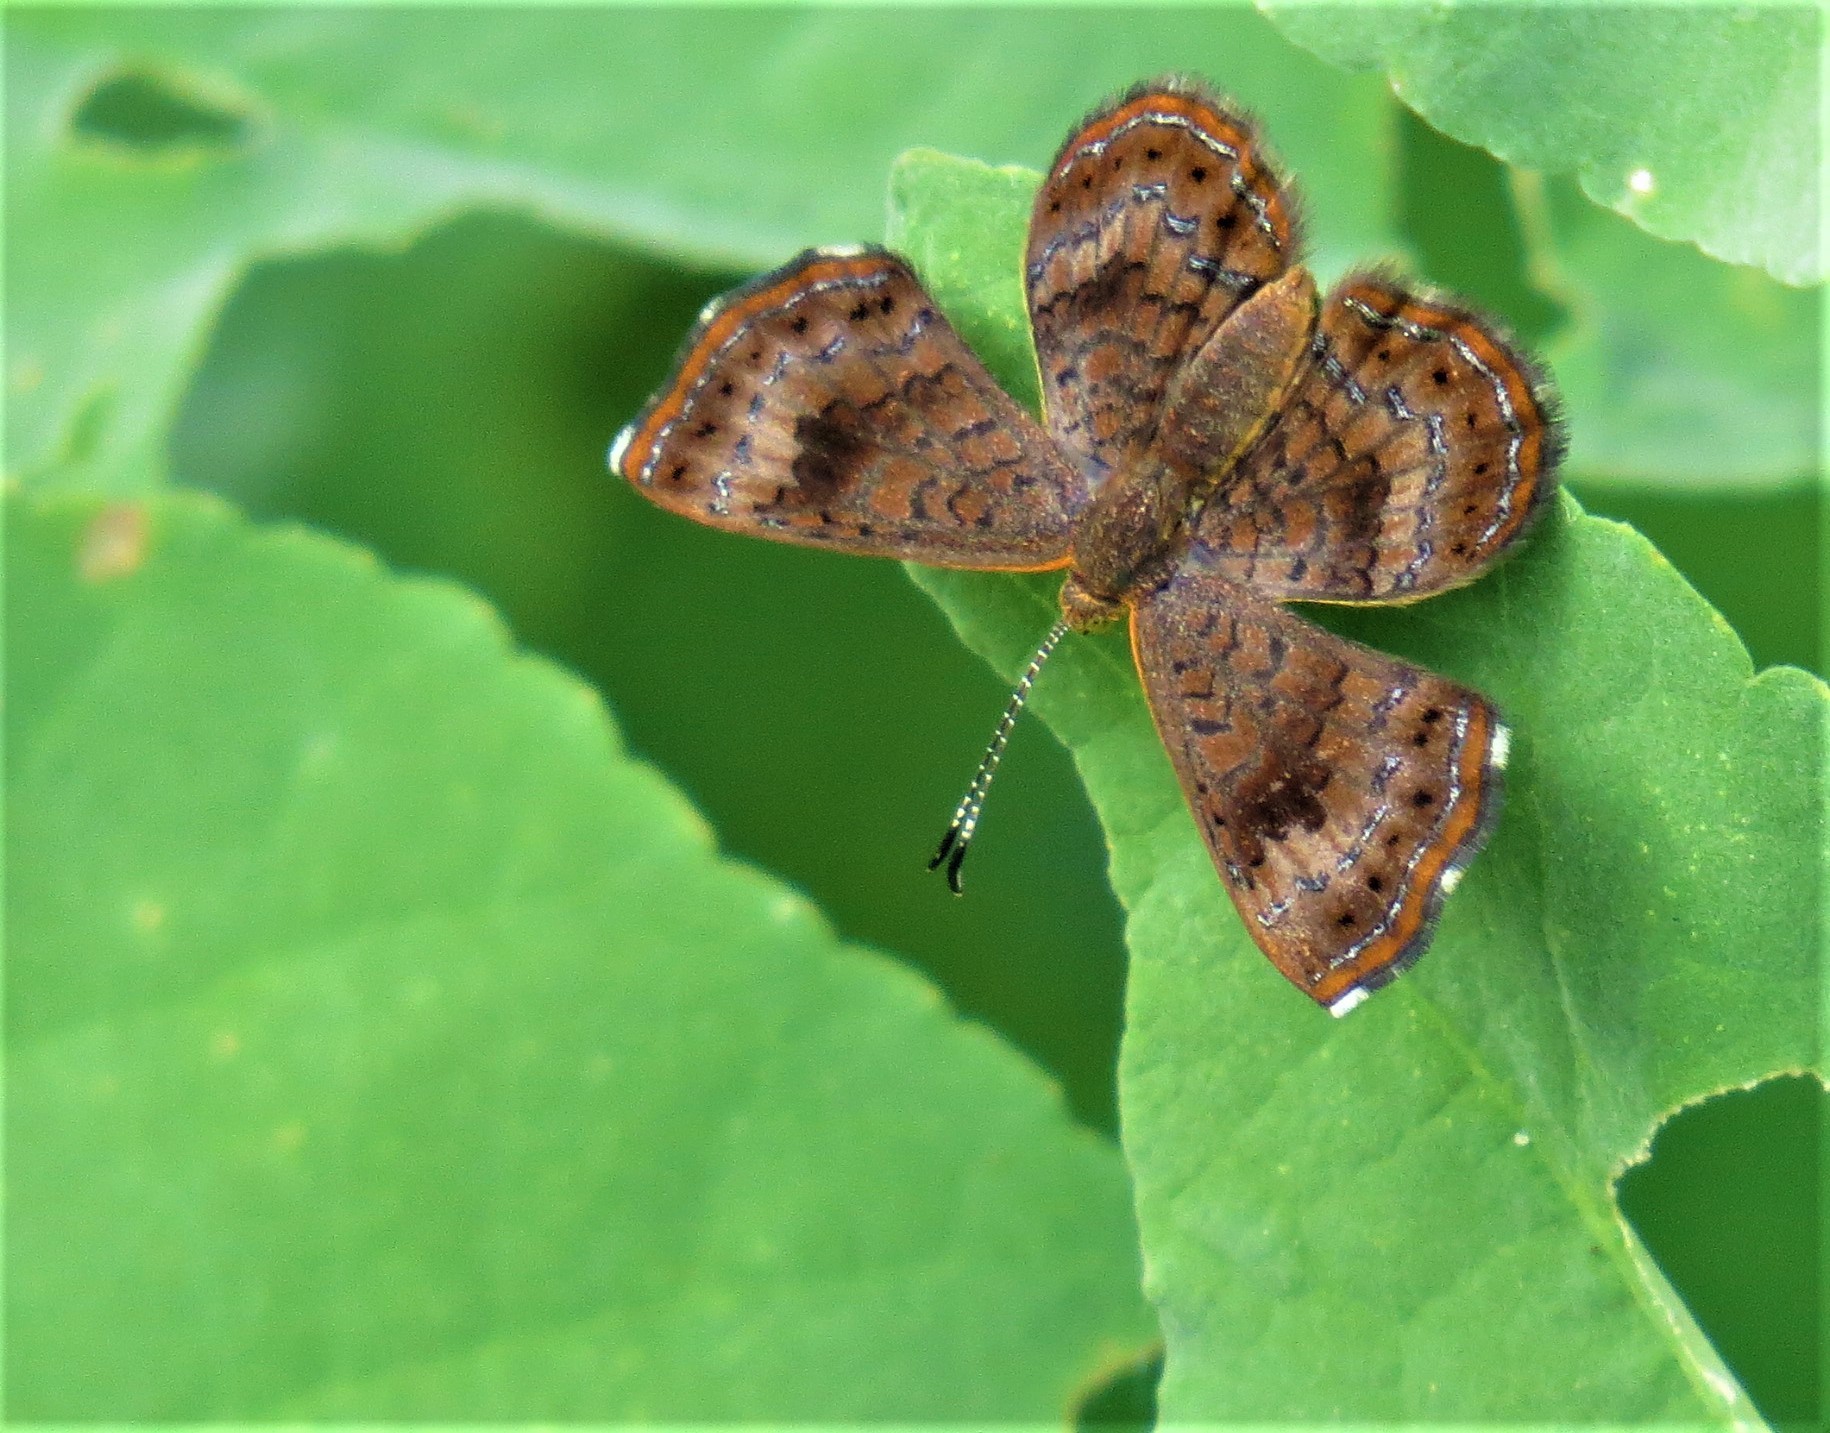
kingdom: Animalia
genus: Calephelis
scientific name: Calephelis nemesis
